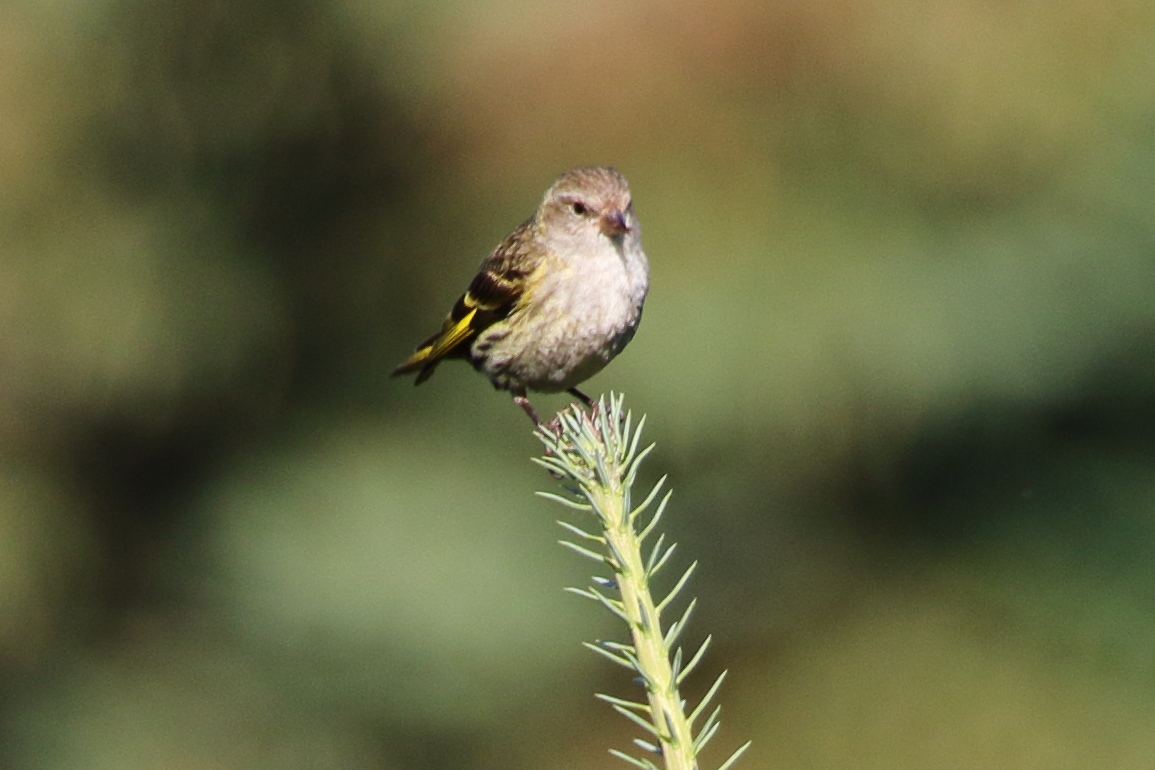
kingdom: Animalia
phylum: Chordata
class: Aves
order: Passeriformes
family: Fringillidae
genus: Spinus
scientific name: Spinus pinus
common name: Pine siskin
